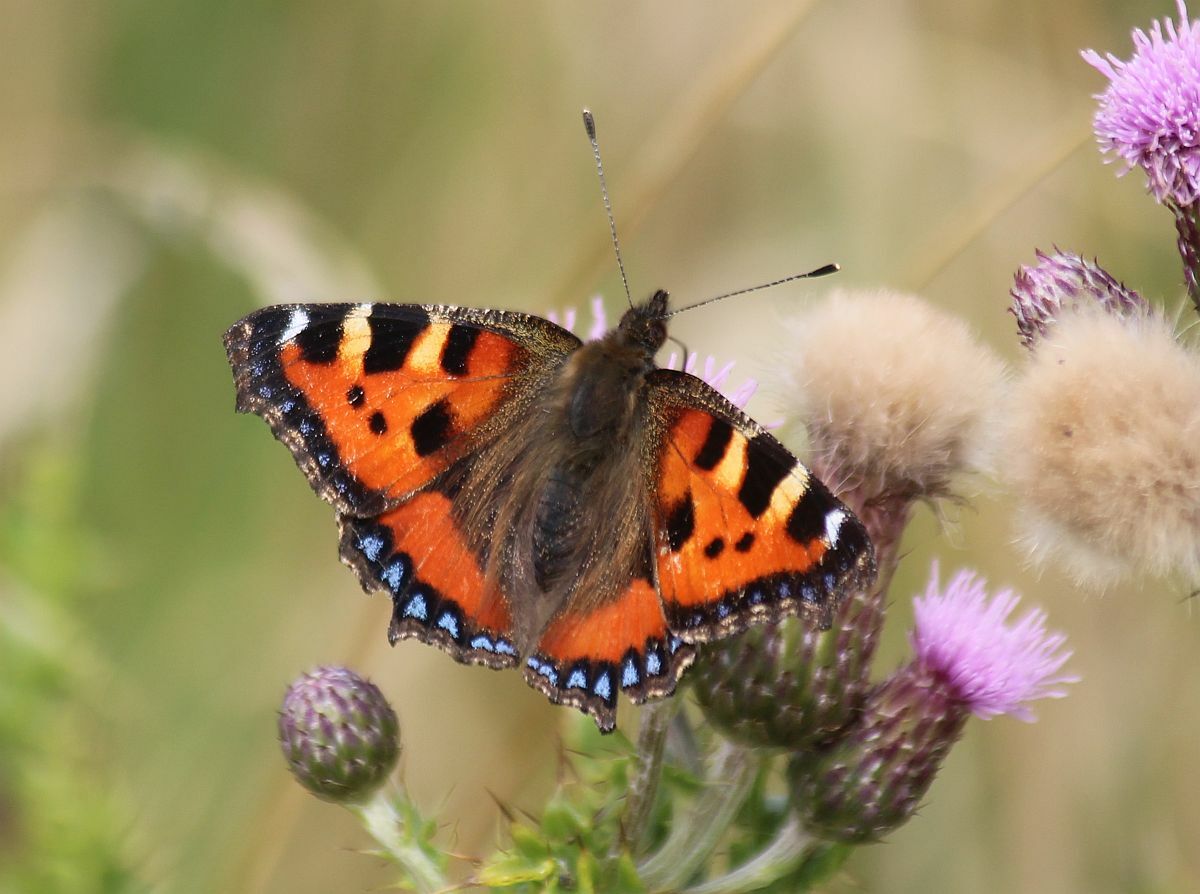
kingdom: Animalia
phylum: Arthropoda
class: Insecta
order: Lepidoptera
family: Nymphalidae
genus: Aglais
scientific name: Aglais urticae
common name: Small tortoiseshell
